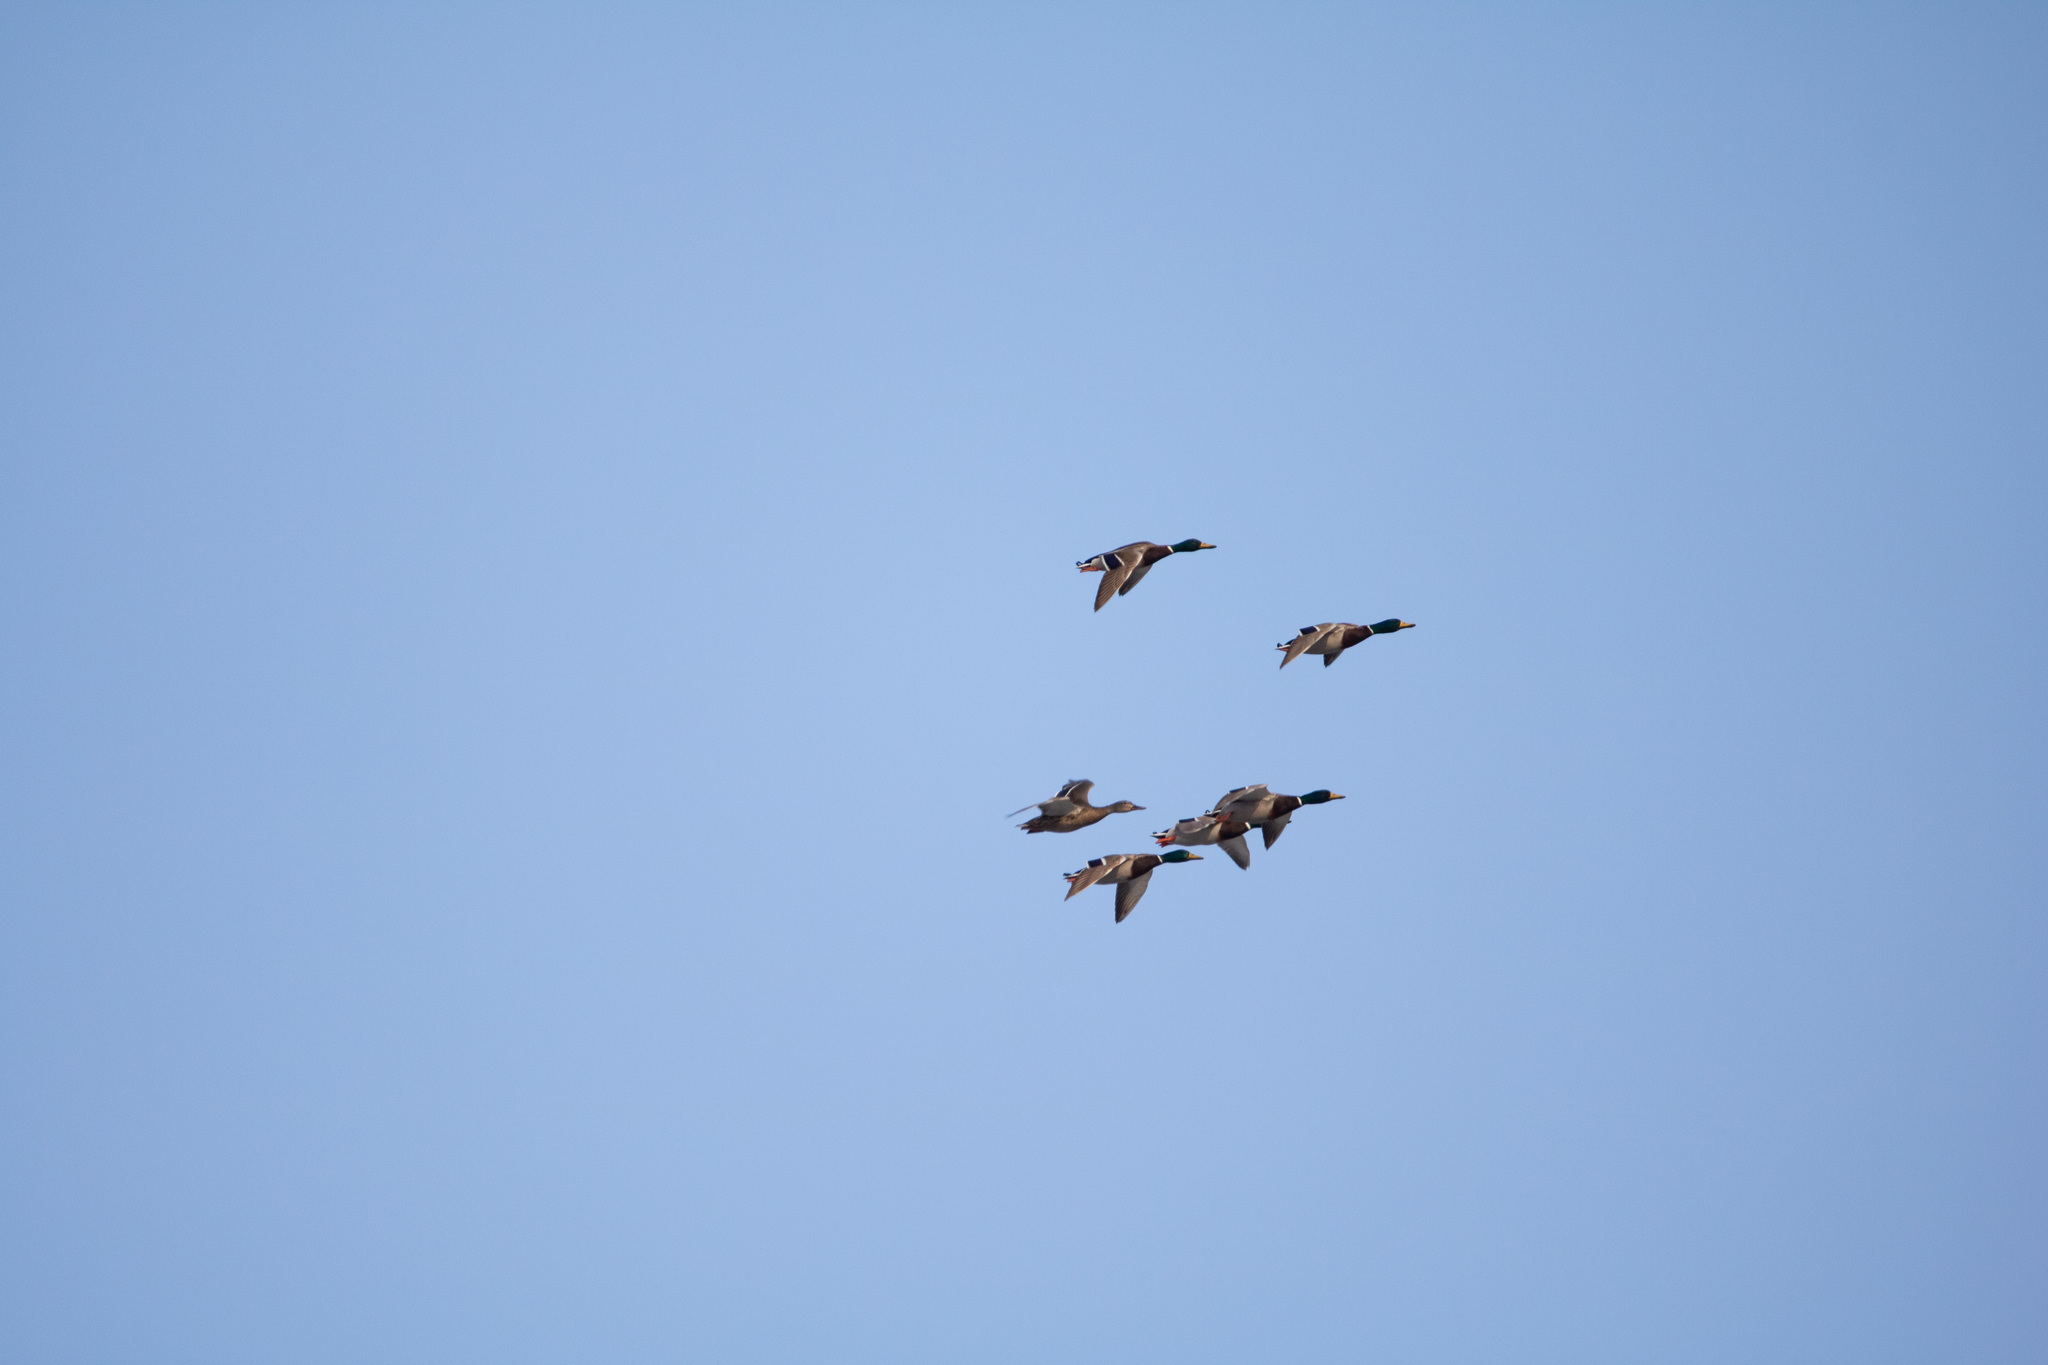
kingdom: Animalia
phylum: Chordata
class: Aves
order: Anseriformes
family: Anatidae
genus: Anas
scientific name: Anas platyrhynchos
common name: Mallard
